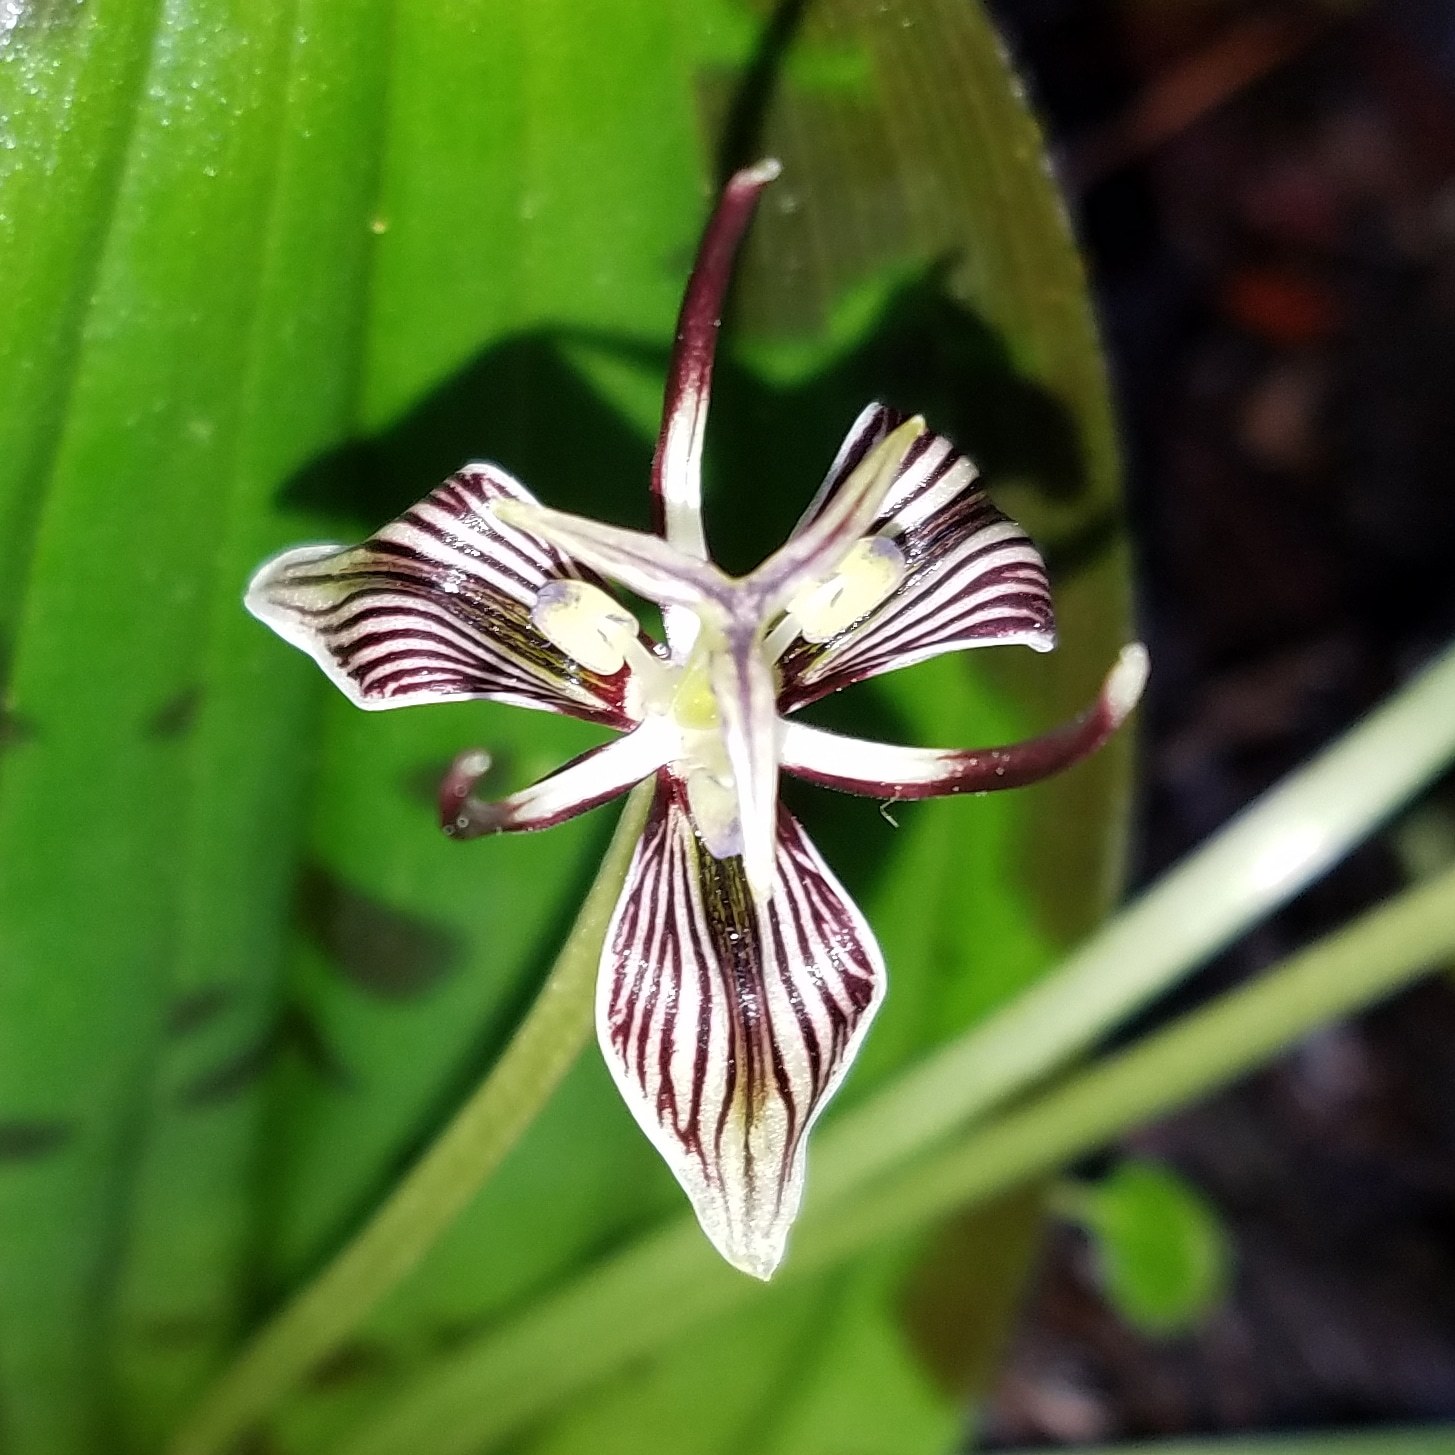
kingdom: Plantae
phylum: Tracheophyta
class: Liliopsida
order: Liliales
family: Liliaceae
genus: Scoliopus
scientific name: Scoliopus bigelovii
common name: Foetid adder's-tongue
